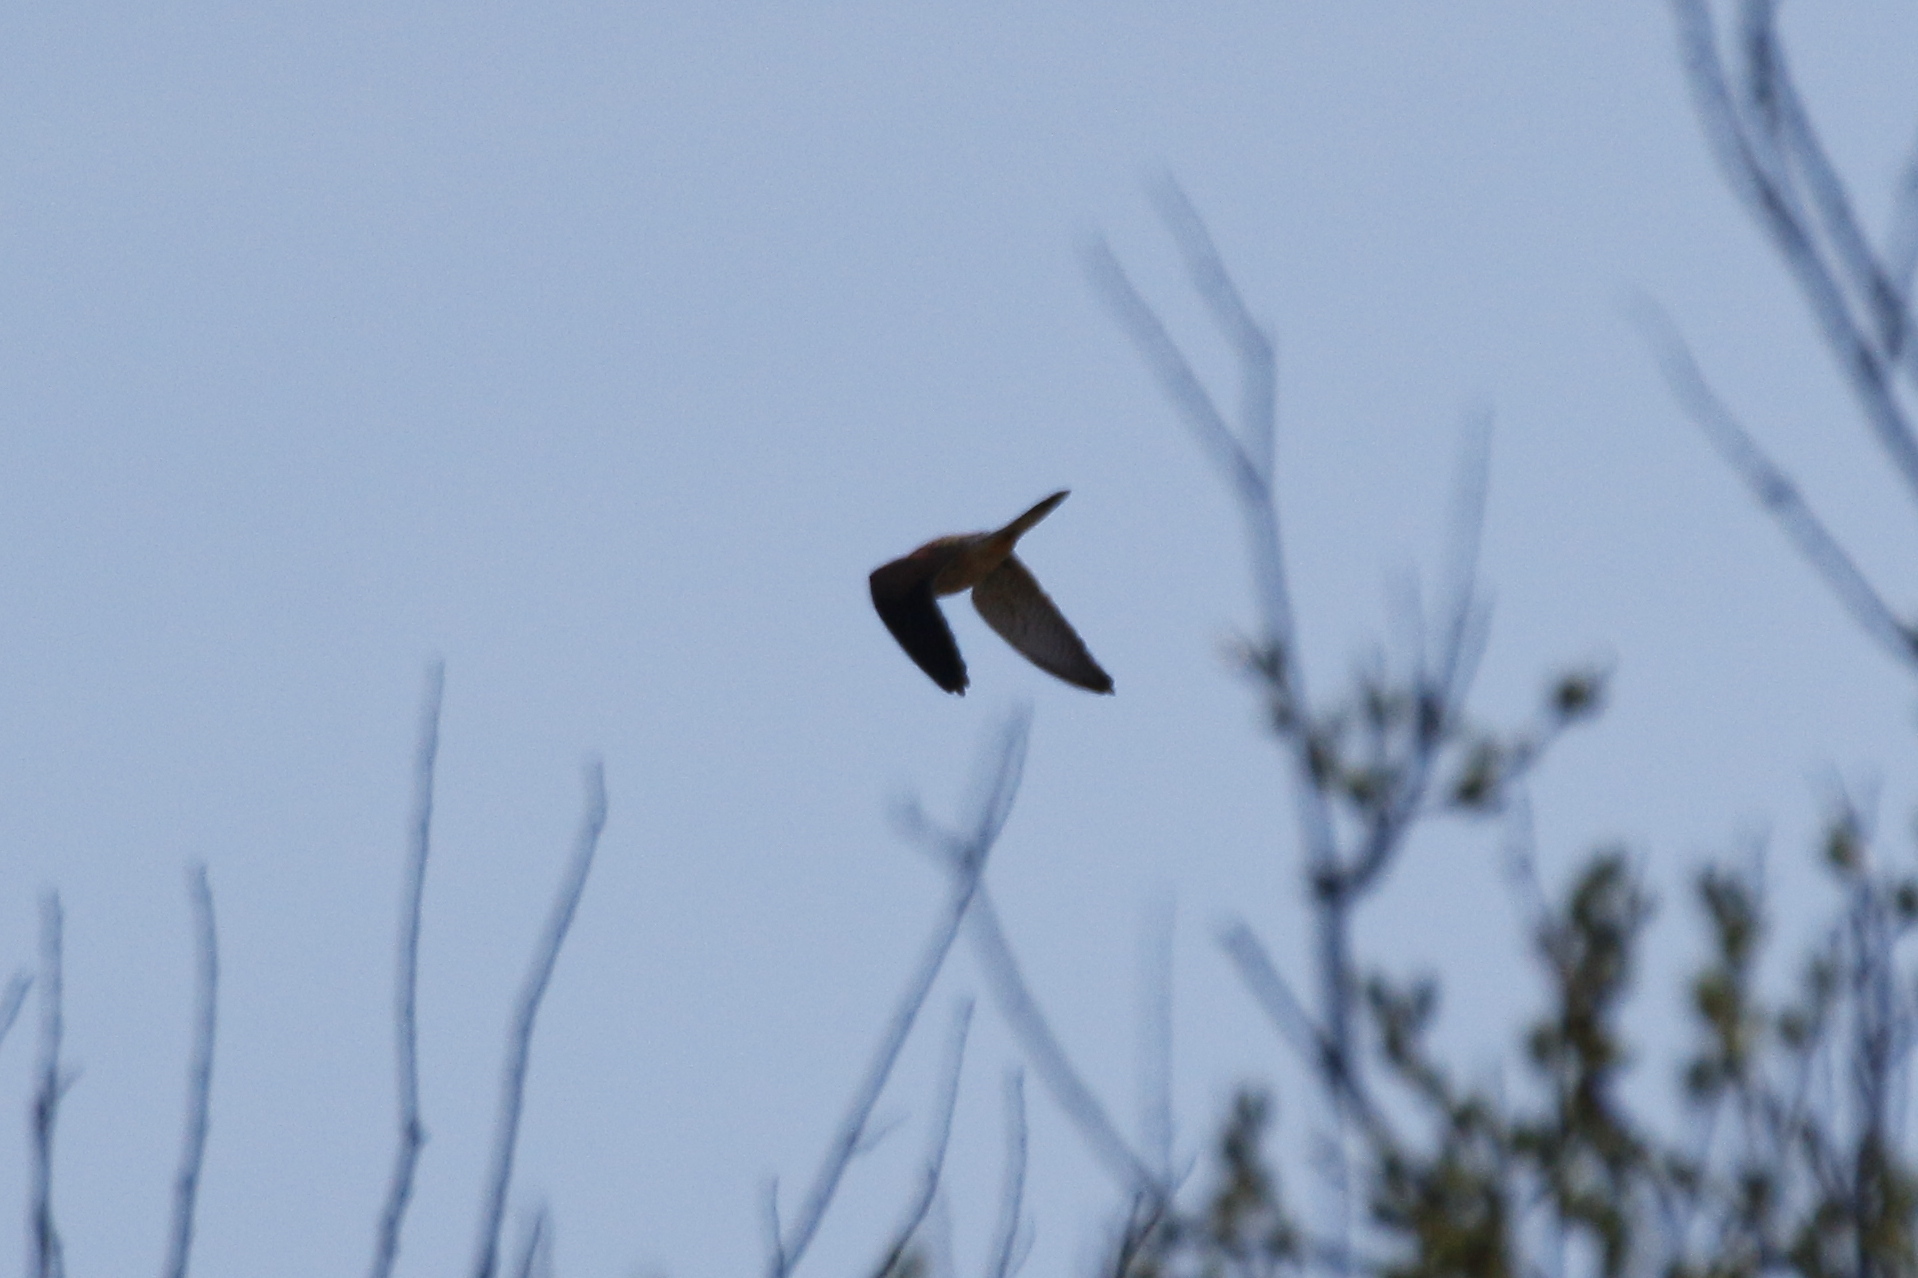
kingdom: Animalia
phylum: Chordata
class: Aves
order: Falconiformes
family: Falconidae
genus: Falco
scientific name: Falco tinnunculus
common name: Common kestrel
